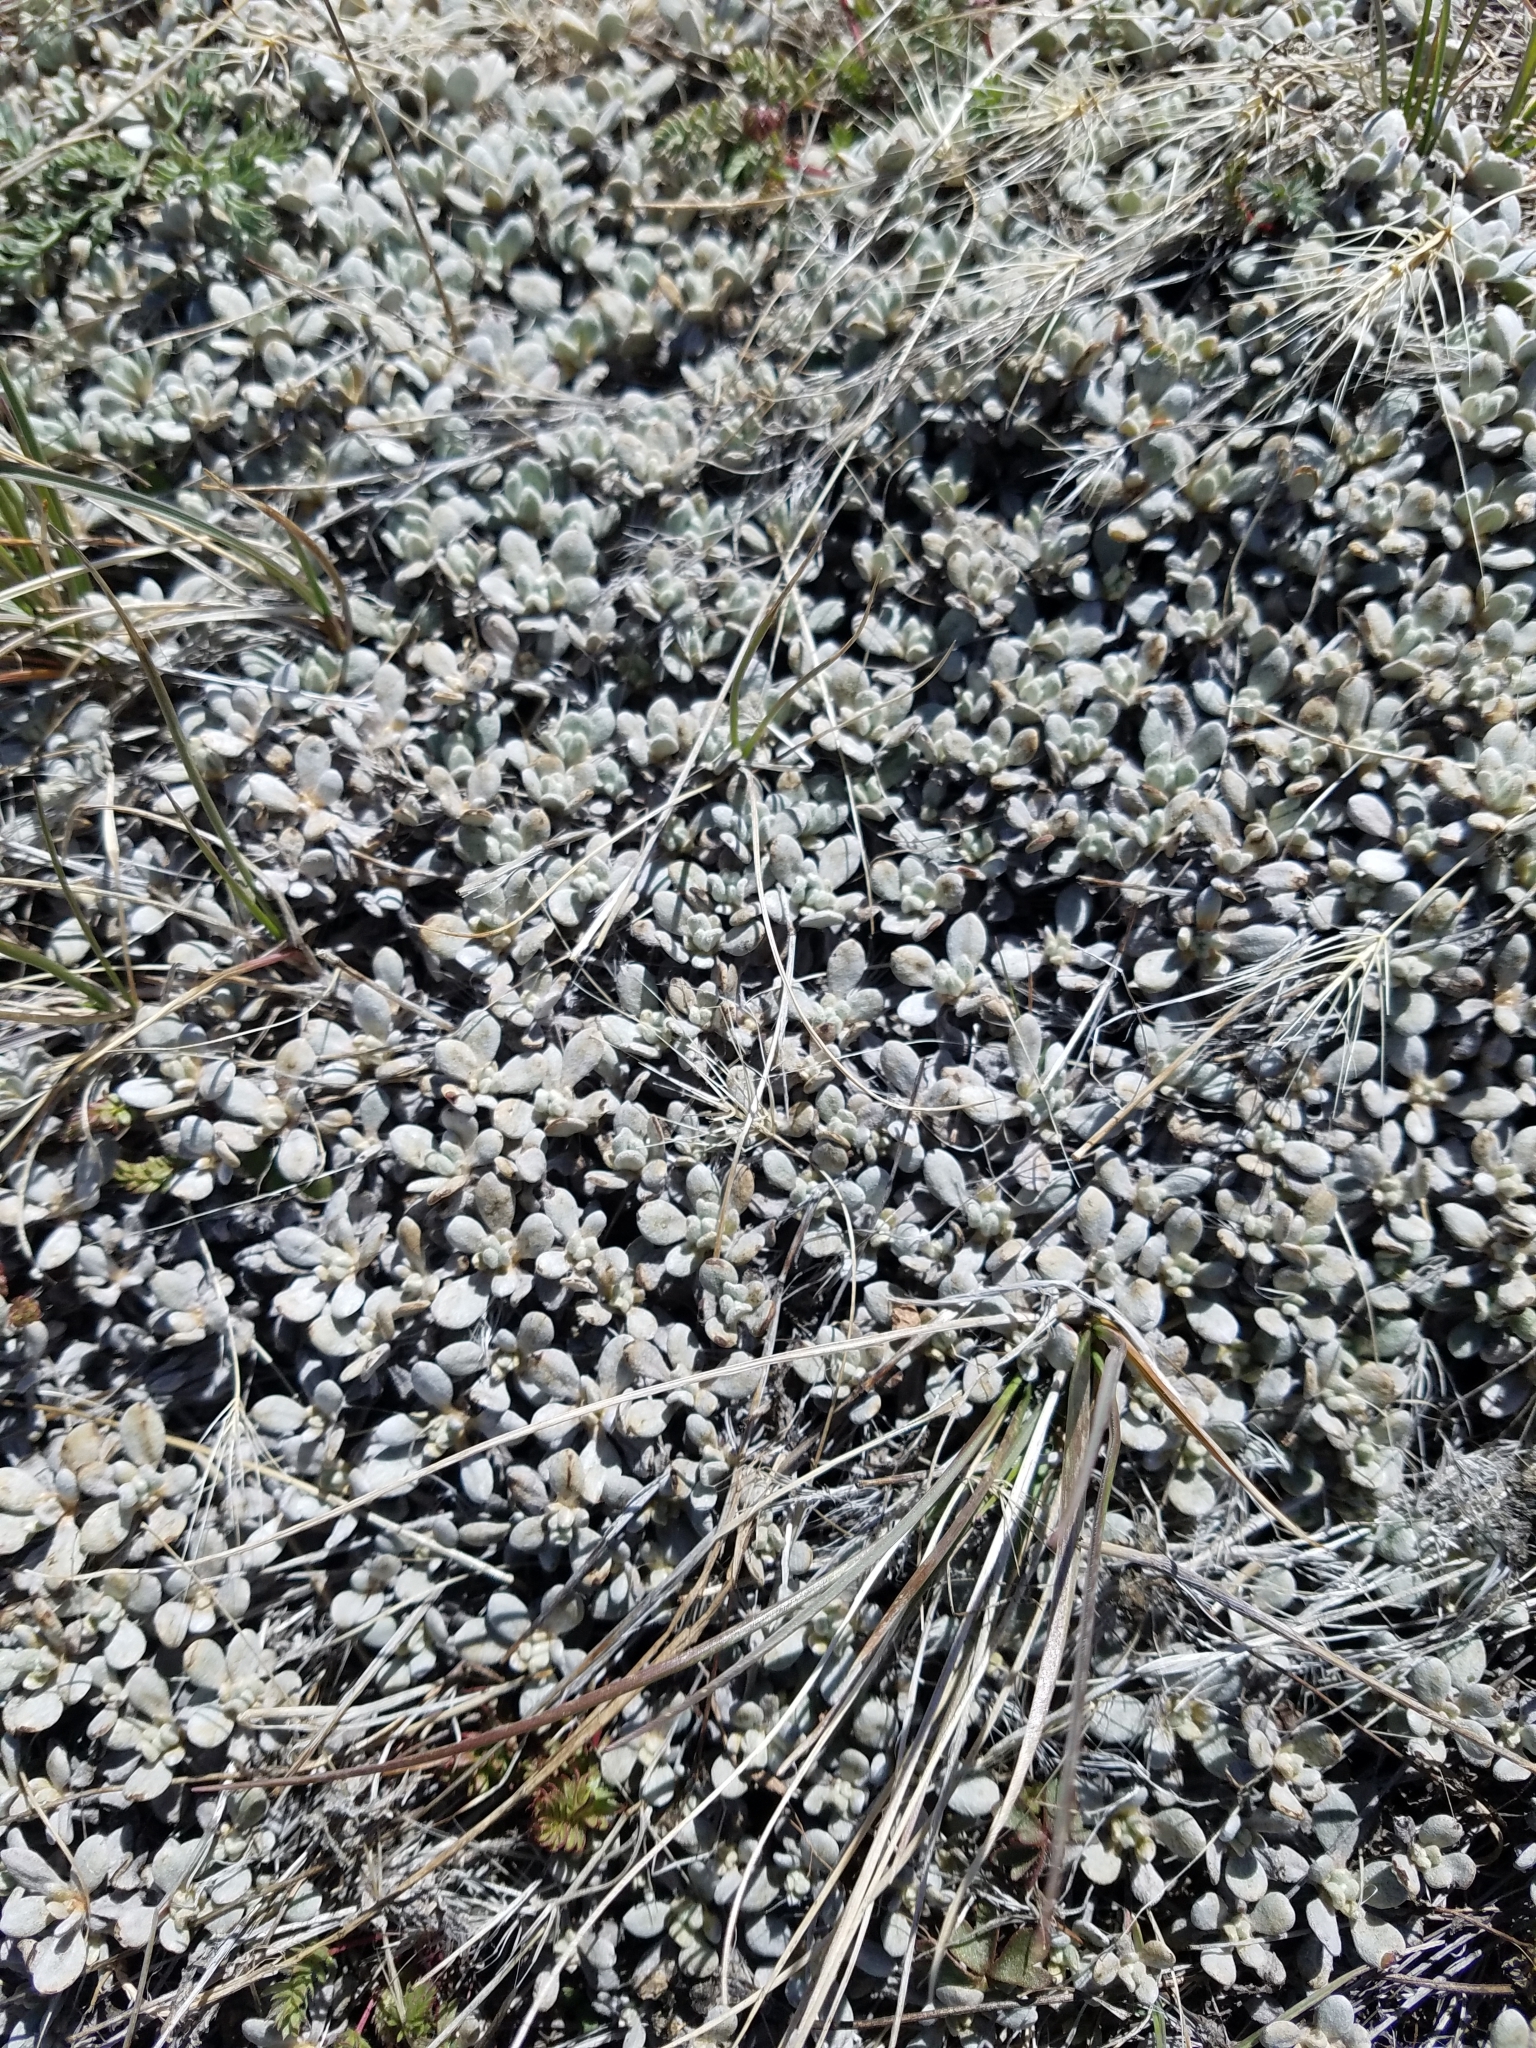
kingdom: Plantae
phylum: Tracheophyta
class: Magnoliopsida
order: Caryophyllales
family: Polygonaceae
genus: Eriogonum
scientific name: Eriogonum caespitosum
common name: Matted wild buckwheat
